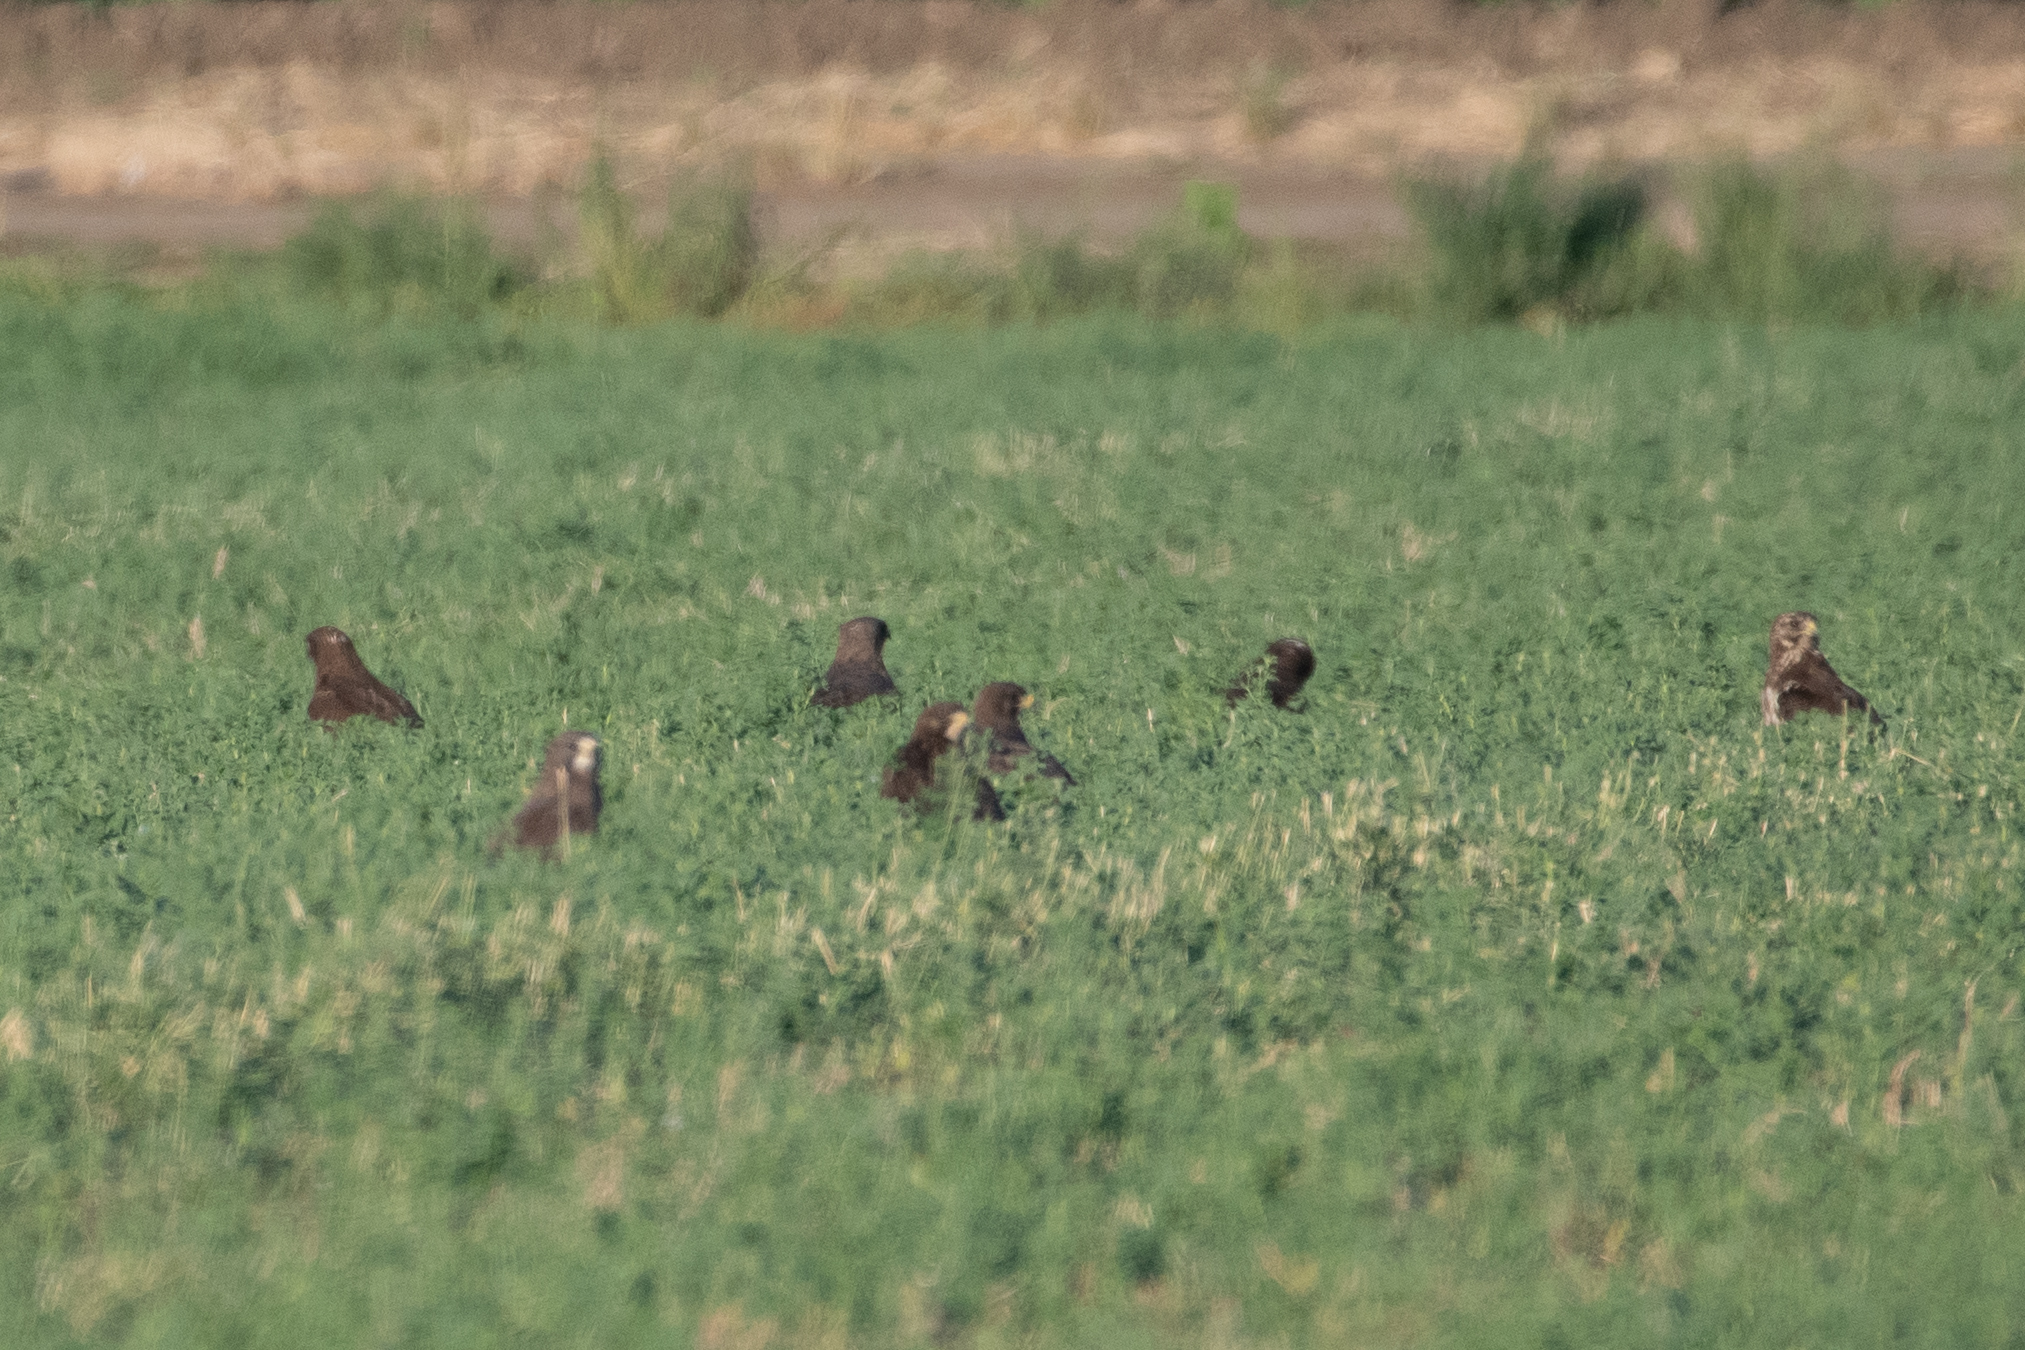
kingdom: Animalia
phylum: Chordata
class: Aves
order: Accipitriformes
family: Accipitridae
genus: Buteo
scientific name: Buteo swainsoni
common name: Swainson's hawk
